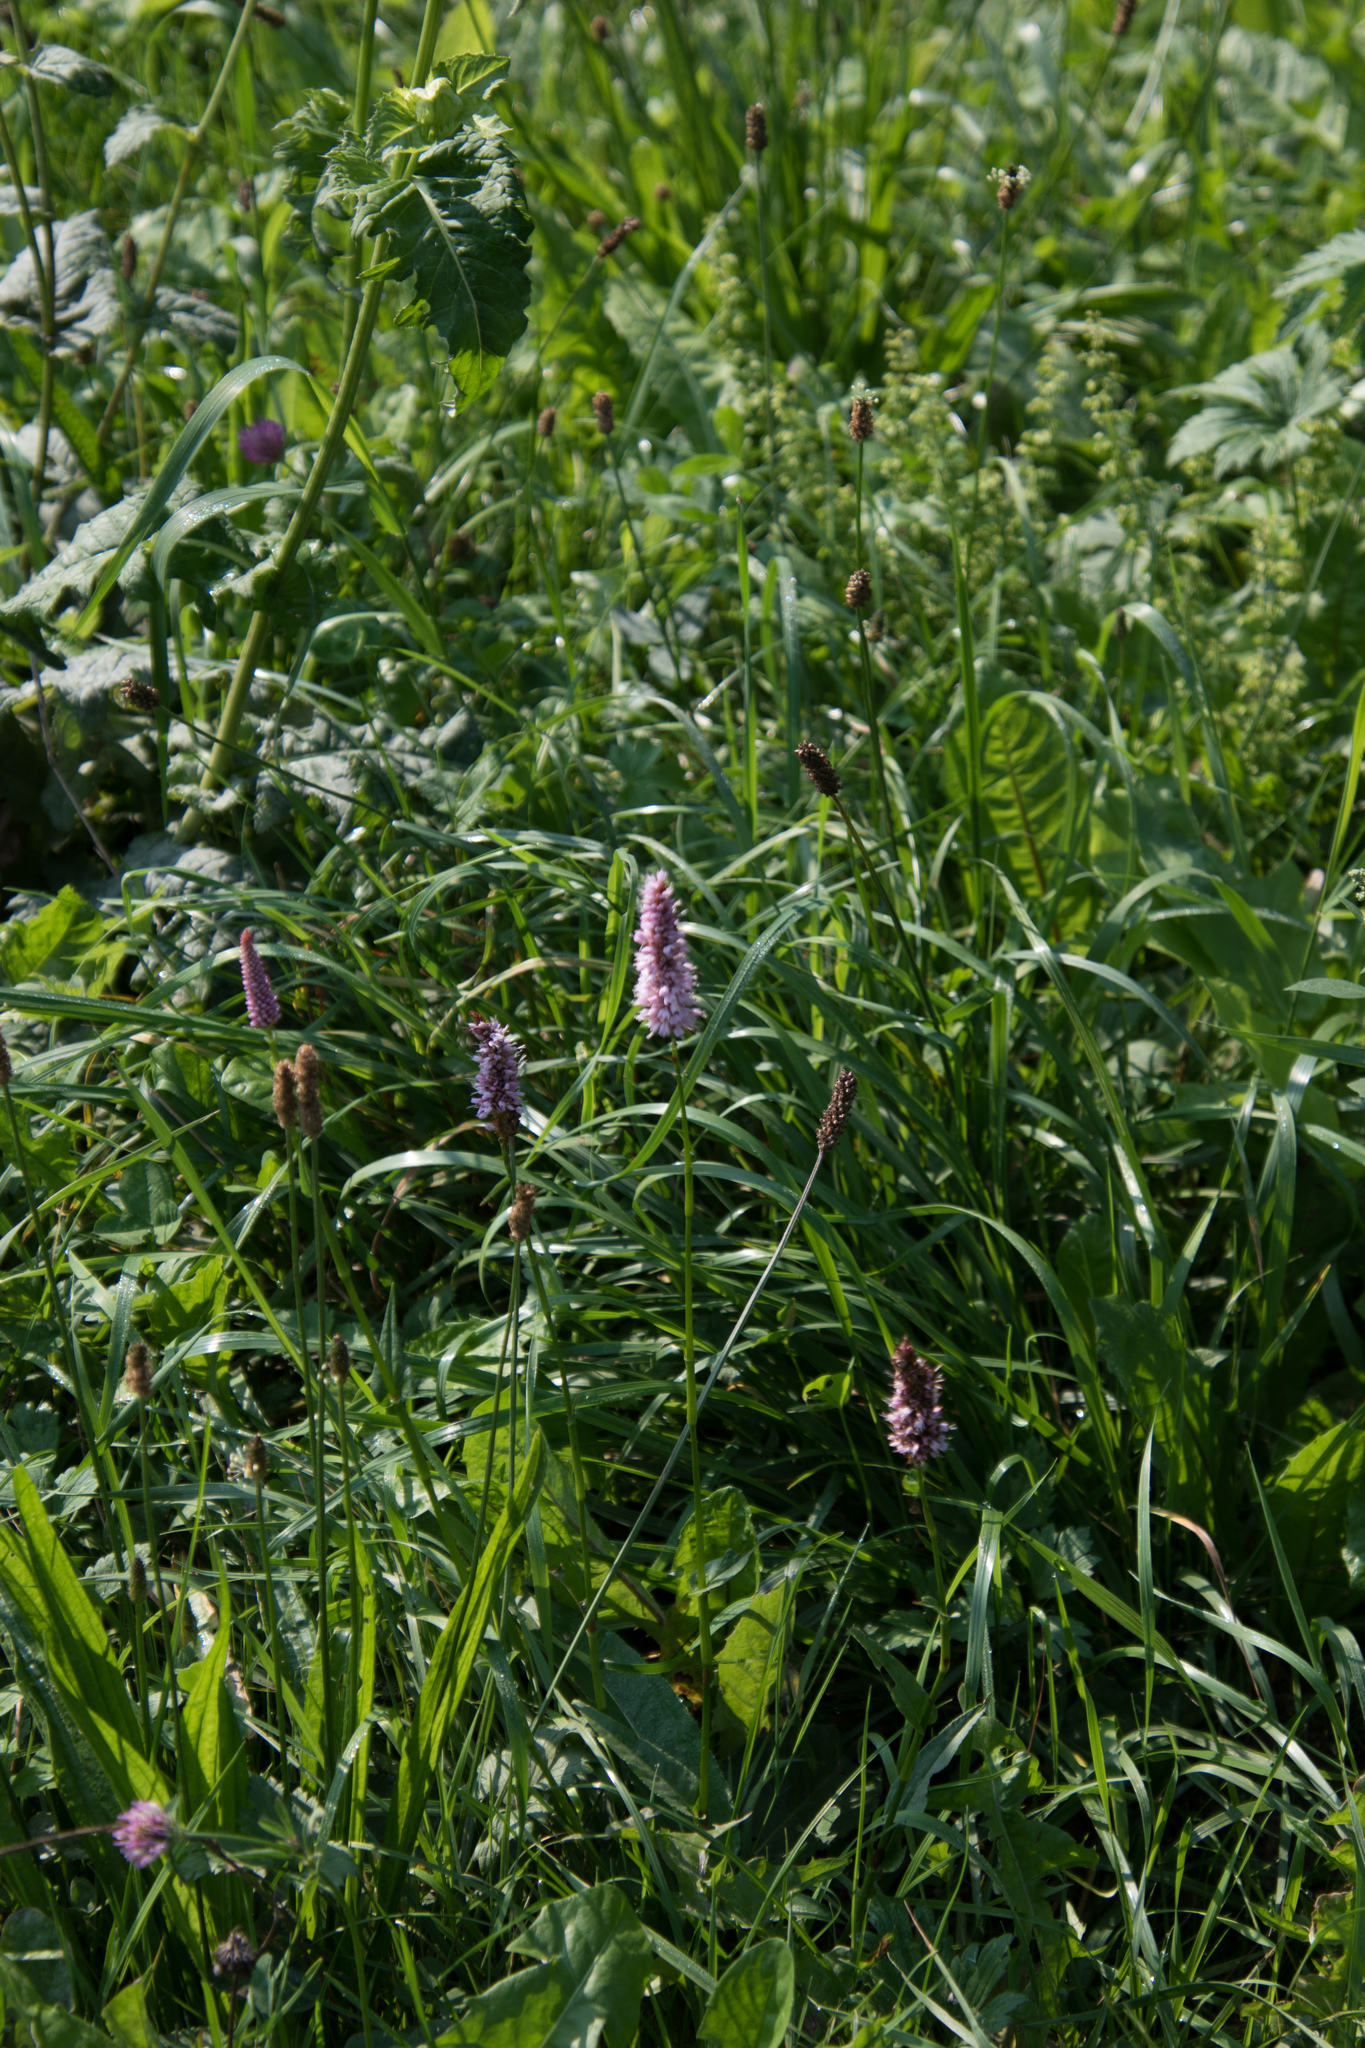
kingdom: Plantae
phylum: Tracheophyta
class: Magnoliopsida
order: Caryophyllales
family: Polygonaceae
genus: Bistorta
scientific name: Bistorta officinalis
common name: Common bistort
